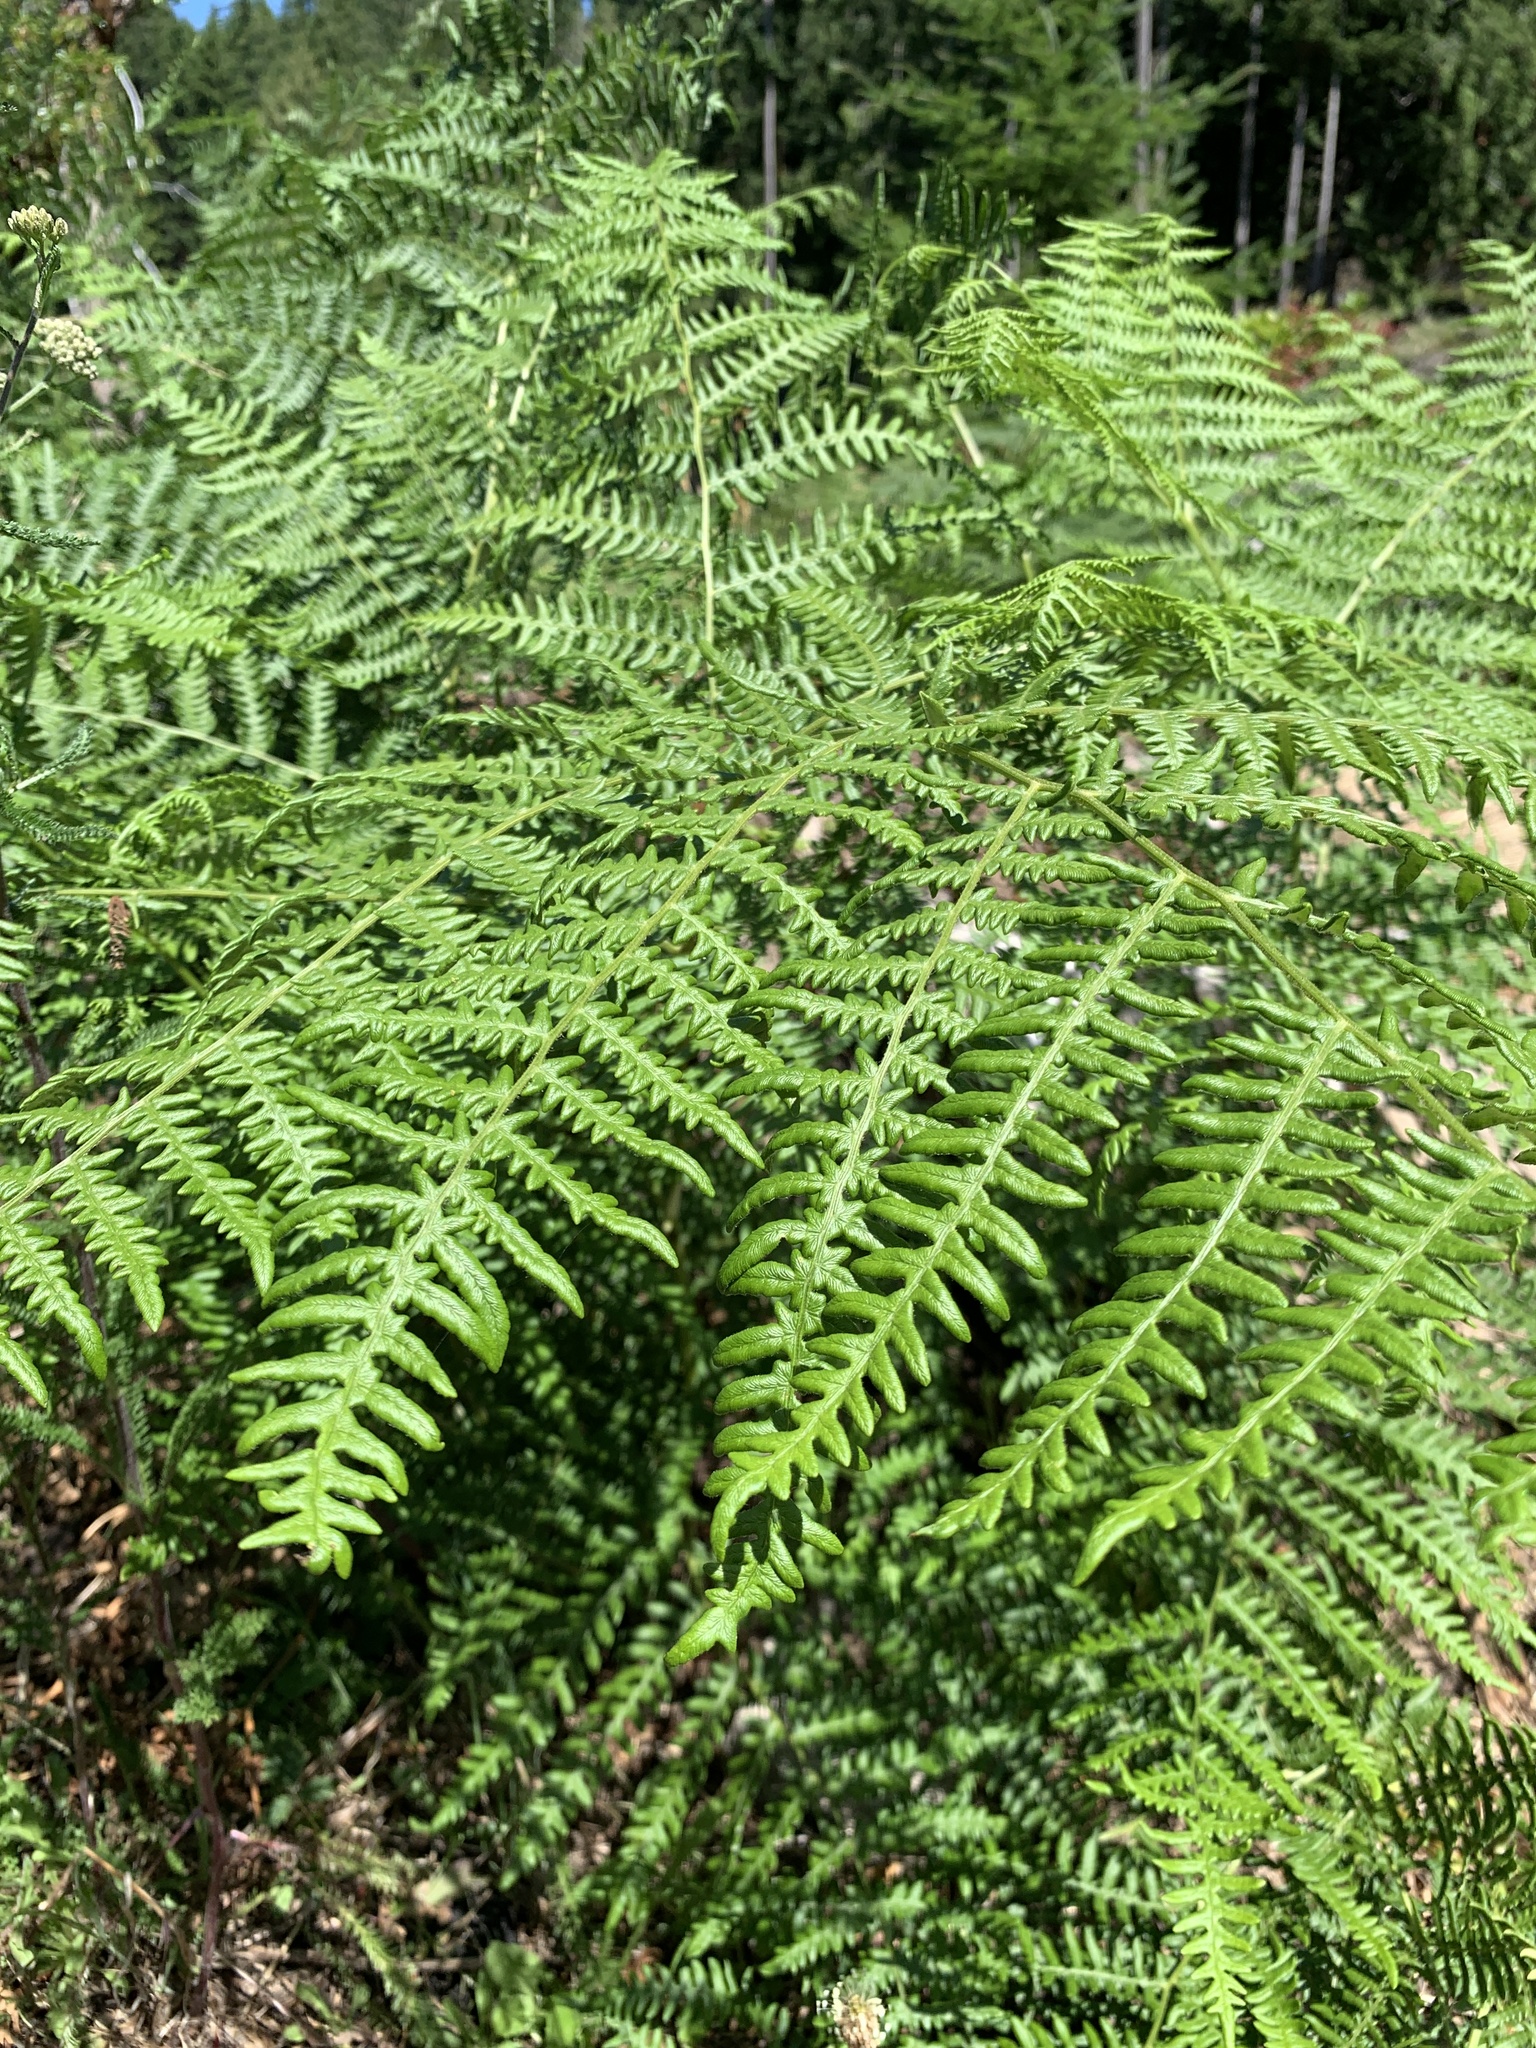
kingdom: Plantae
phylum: Tracheophyta
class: Polypodiopsida
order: Polypodiales
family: Dennstaedtiaceae
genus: Pteridium
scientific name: Pteridium aquilinum
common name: Bracken
